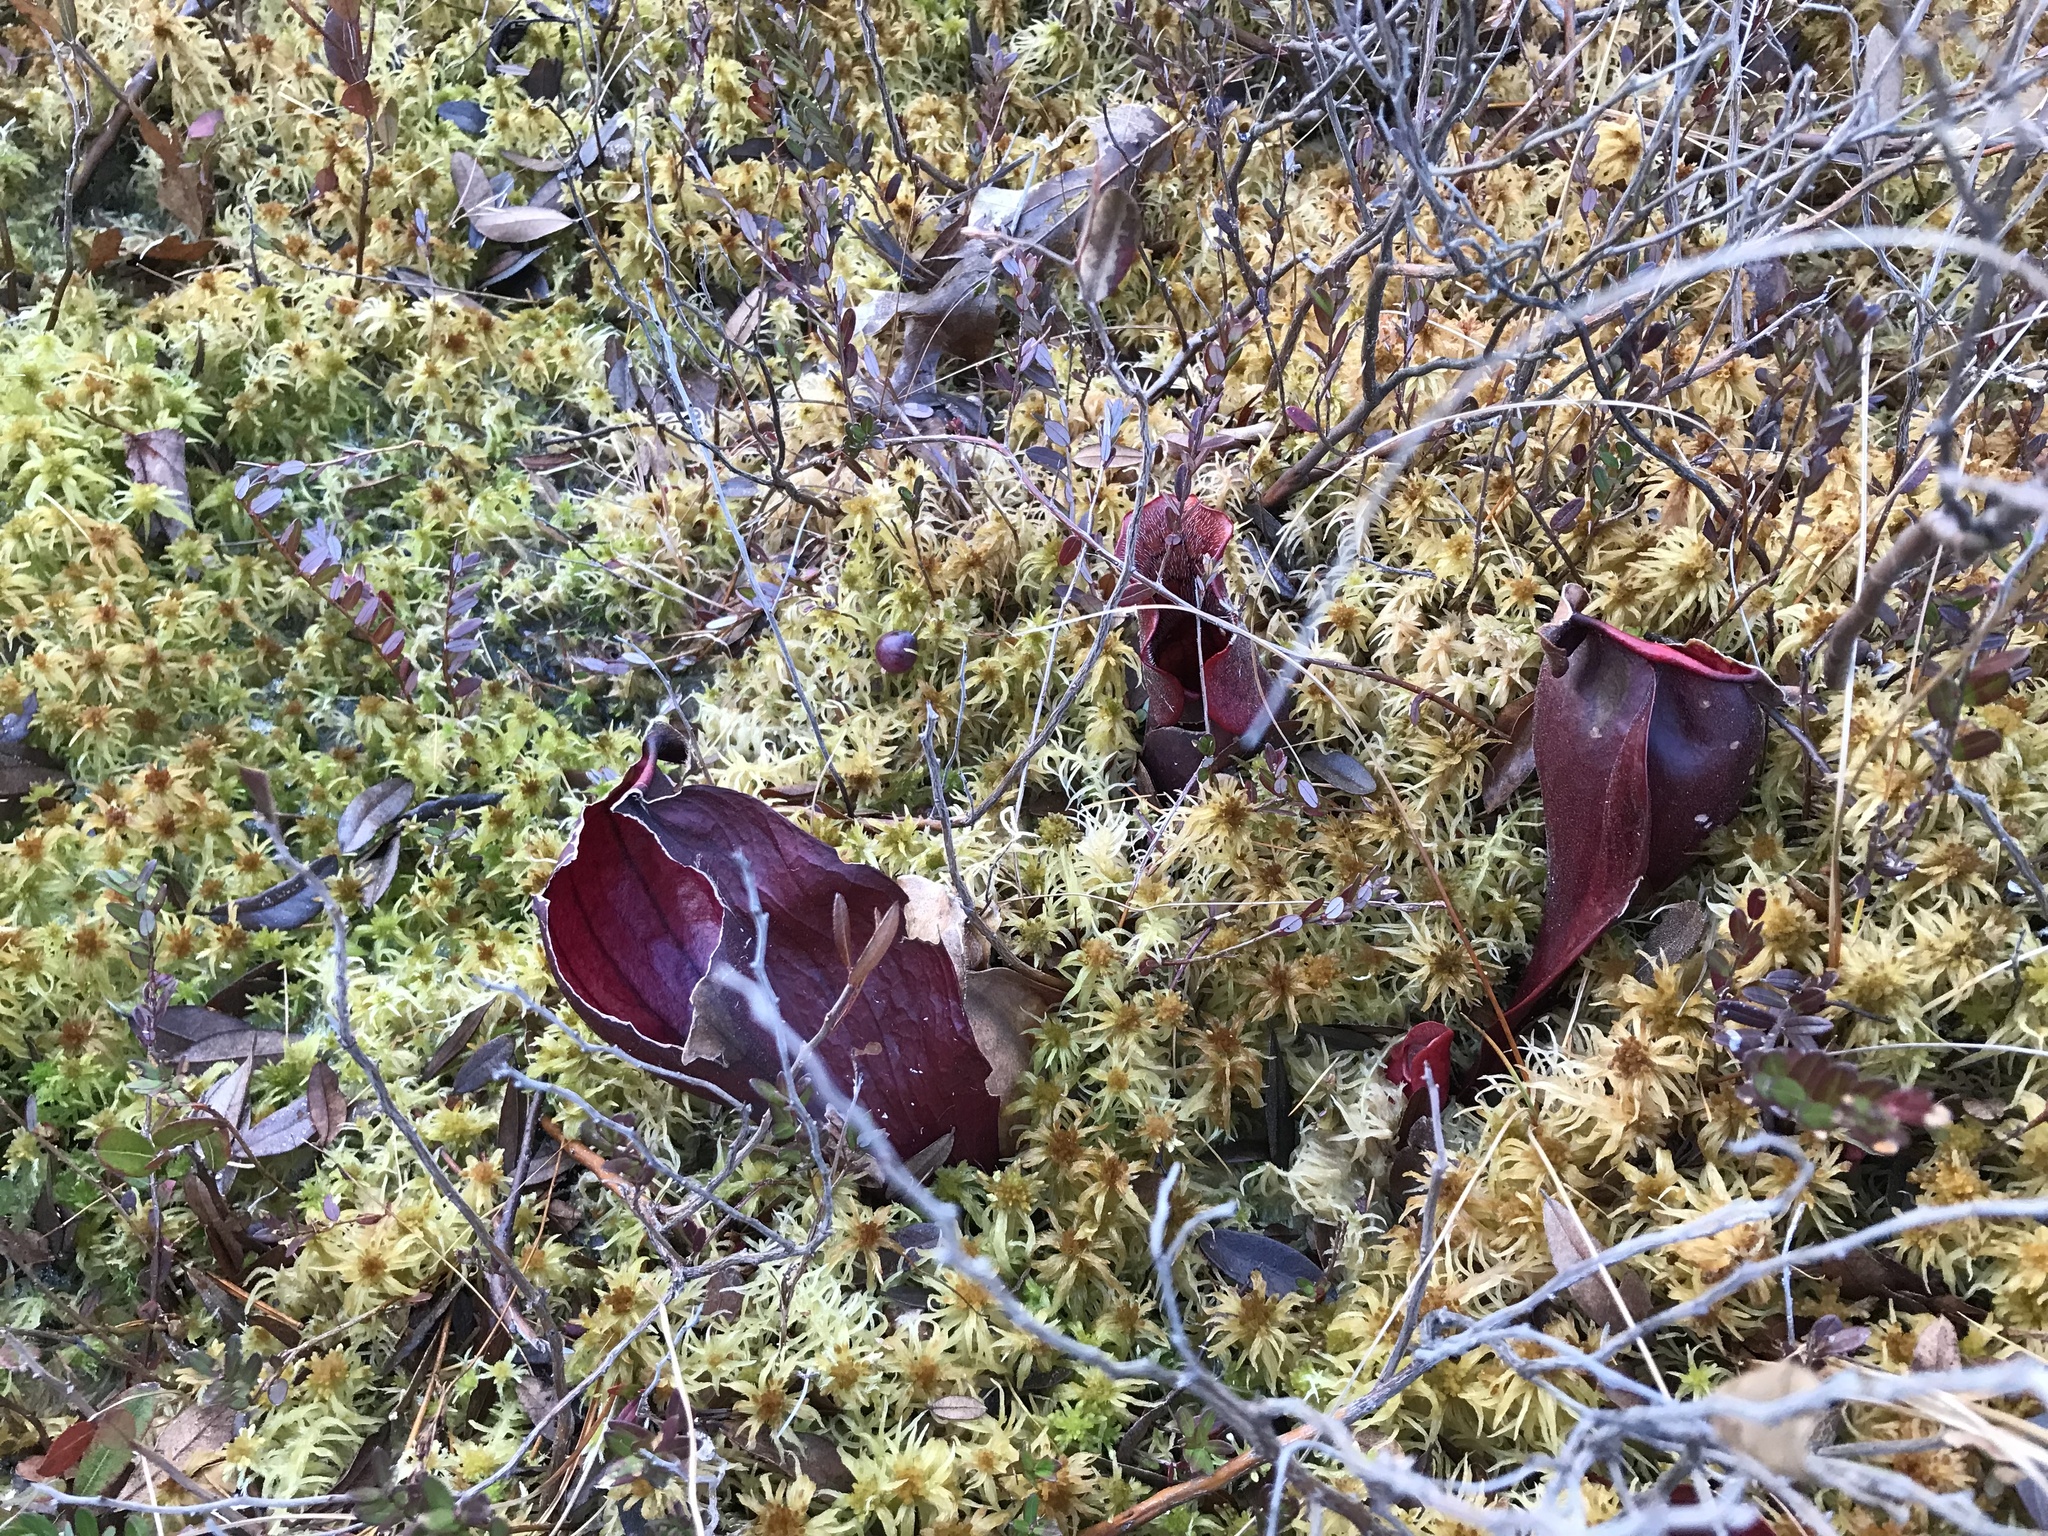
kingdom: Plantae
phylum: Tracheophyta
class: Magnoliopsida
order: Ericales
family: Sarraceniaceae
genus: Sarracenia
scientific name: Sarracenia purpurea
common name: Pitcherplant
